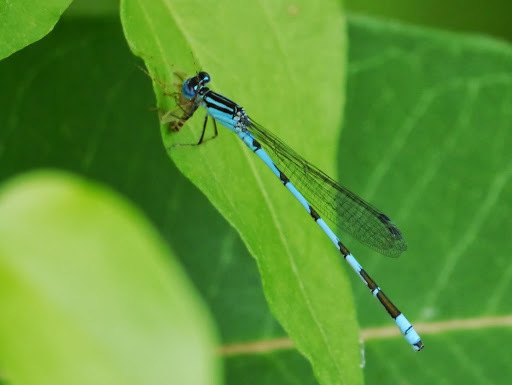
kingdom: Animalia
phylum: Arthropoda
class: Insecta
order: Odonata
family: Coenagrionidae
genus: Enallagma
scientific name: Enallagma durum
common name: Big bluet
